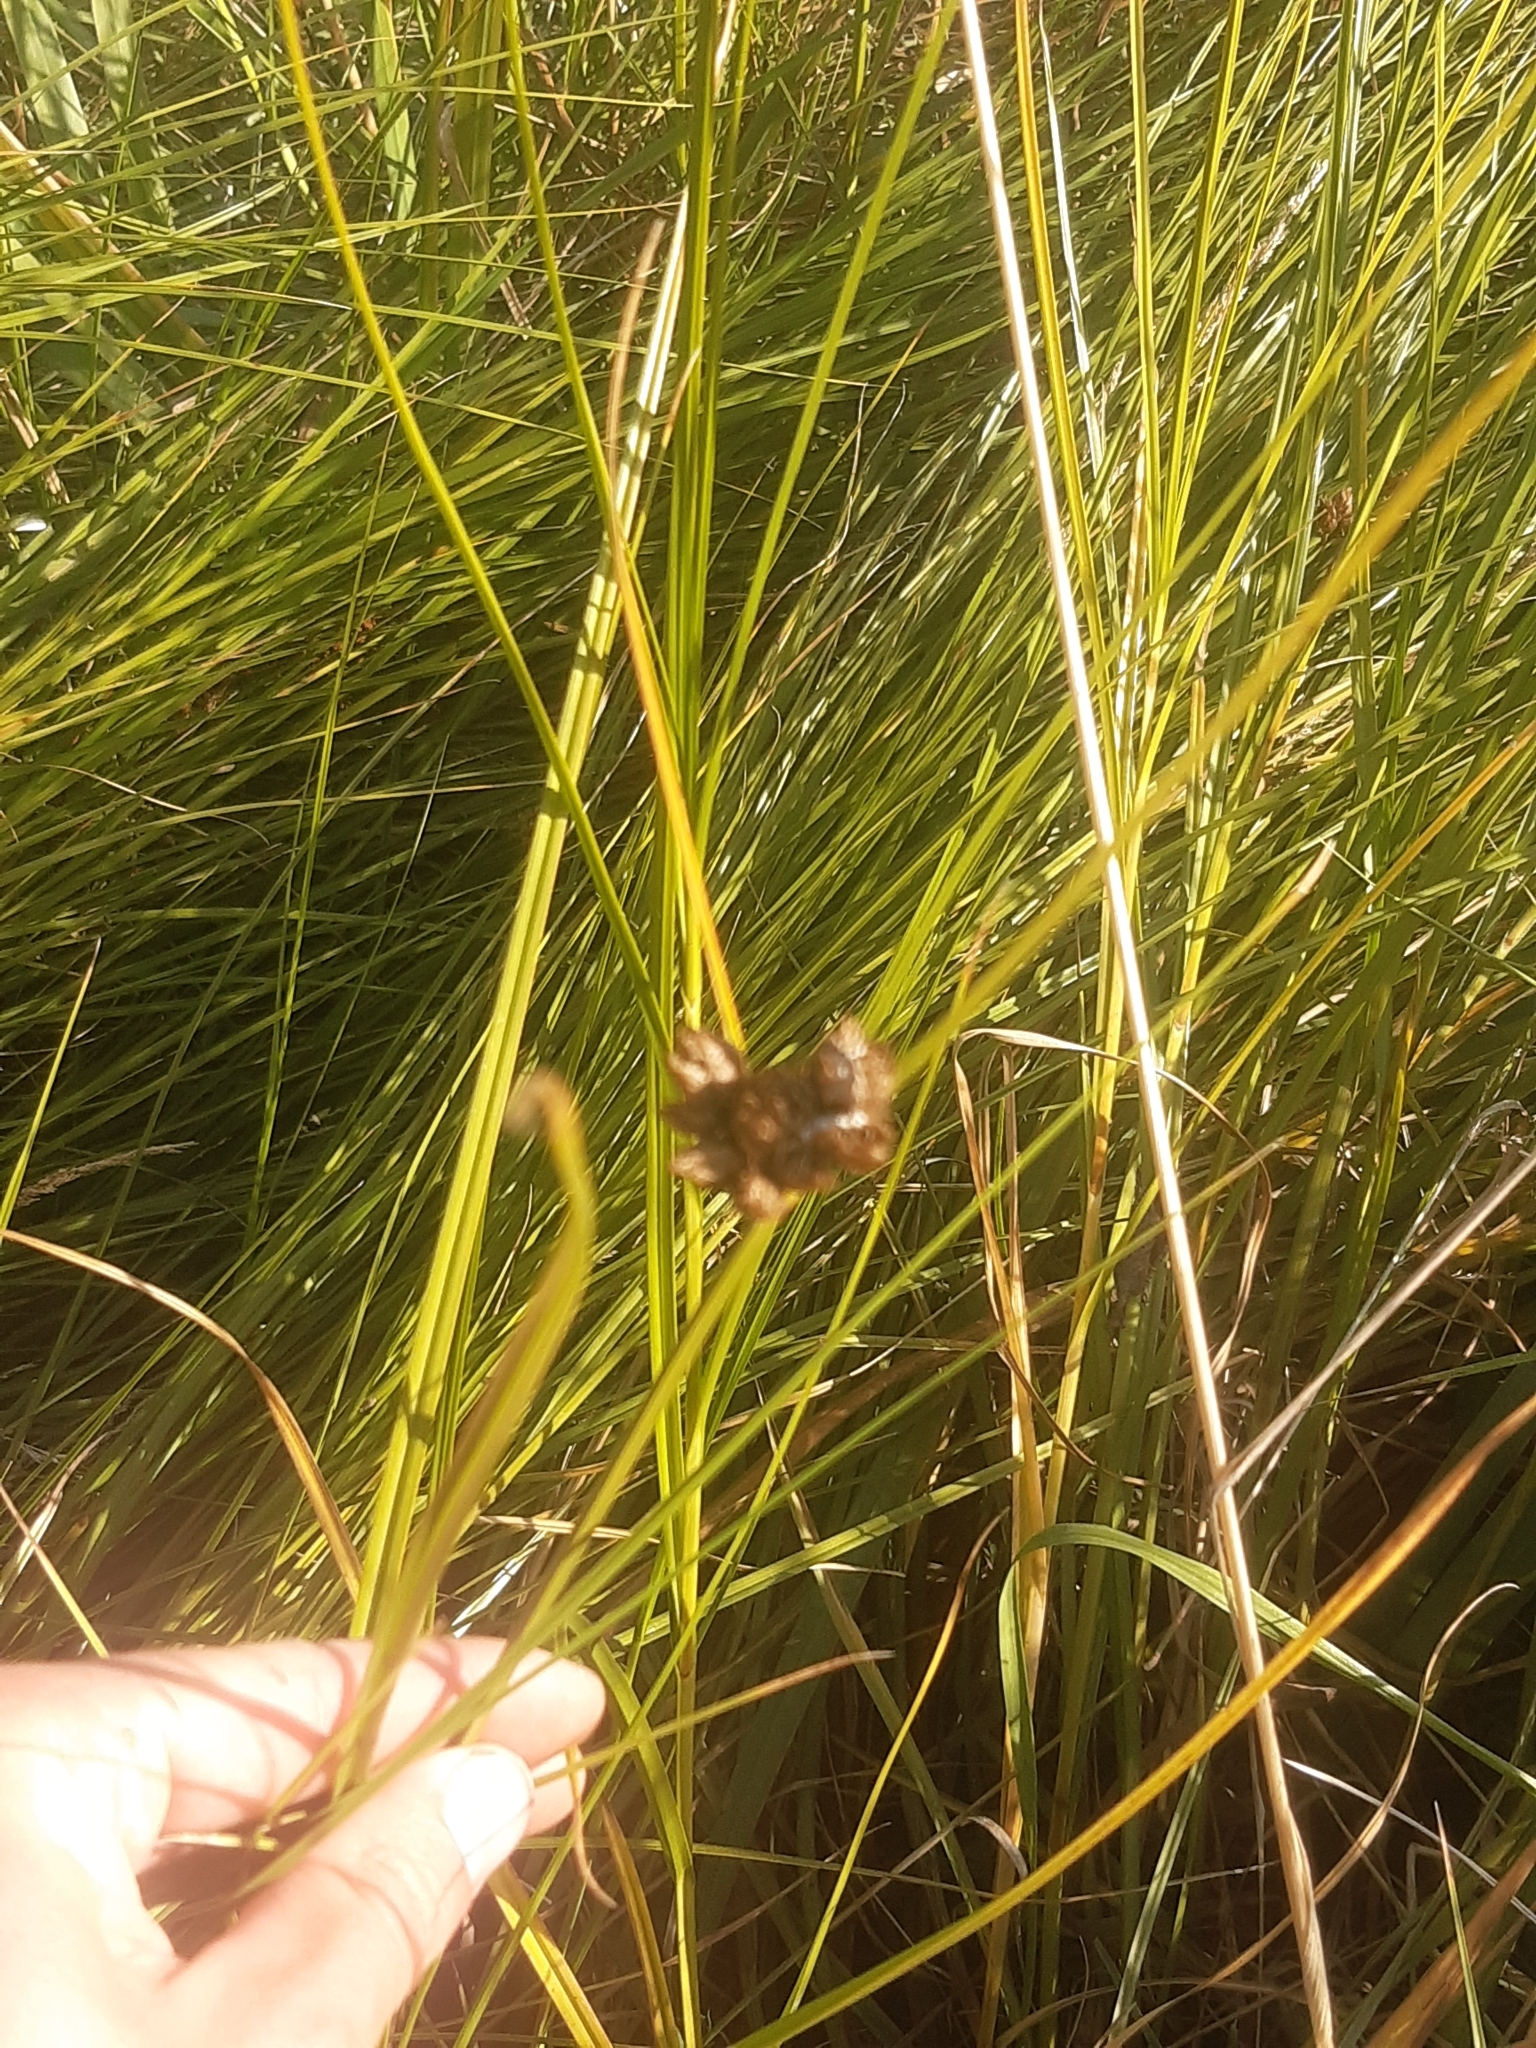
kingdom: Plantae
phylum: Tracheophyta
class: Liliopsida
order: Poales
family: Cyperaceae
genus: Bolboschoenus
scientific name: Bolboschoenus caldwellii
